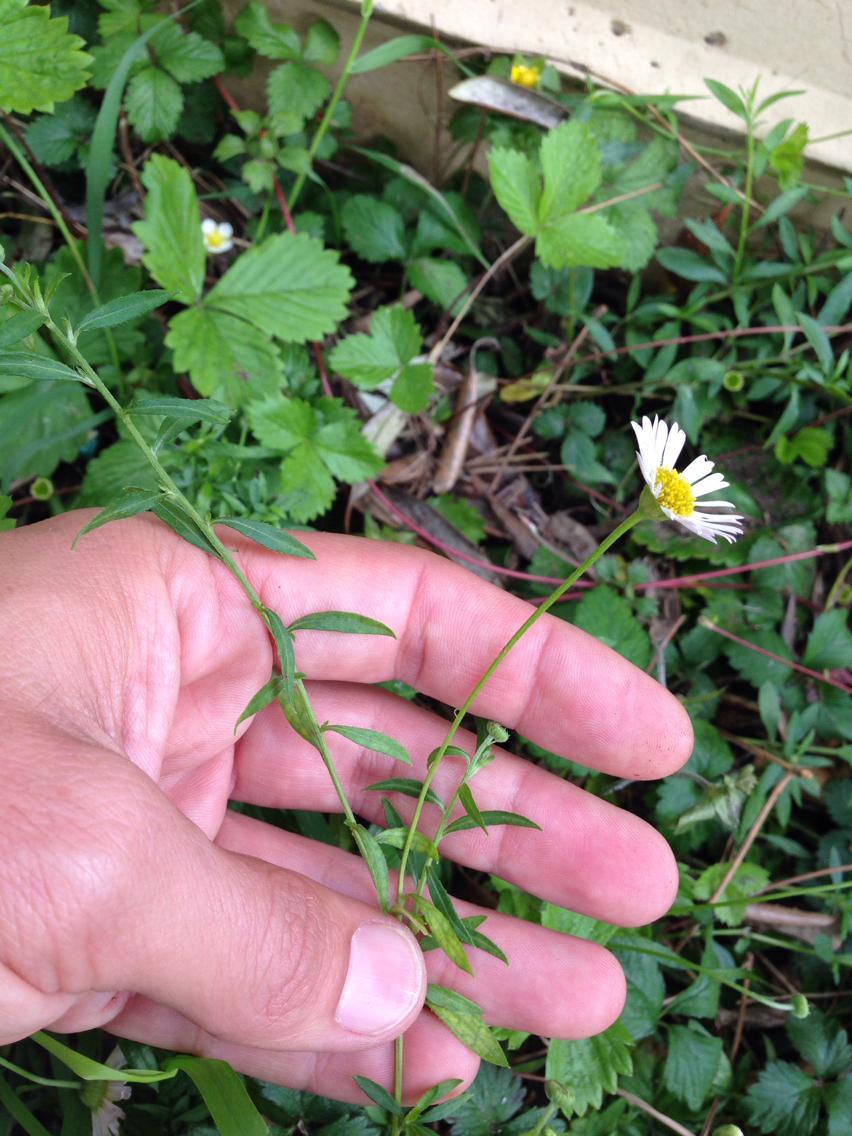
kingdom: Plantae
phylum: Tracheophyta
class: Magnoliopsida
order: Asterales
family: Asteraceae
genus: Erigeron
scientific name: Erigeron karvinskianus
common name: Mexican fleabane
